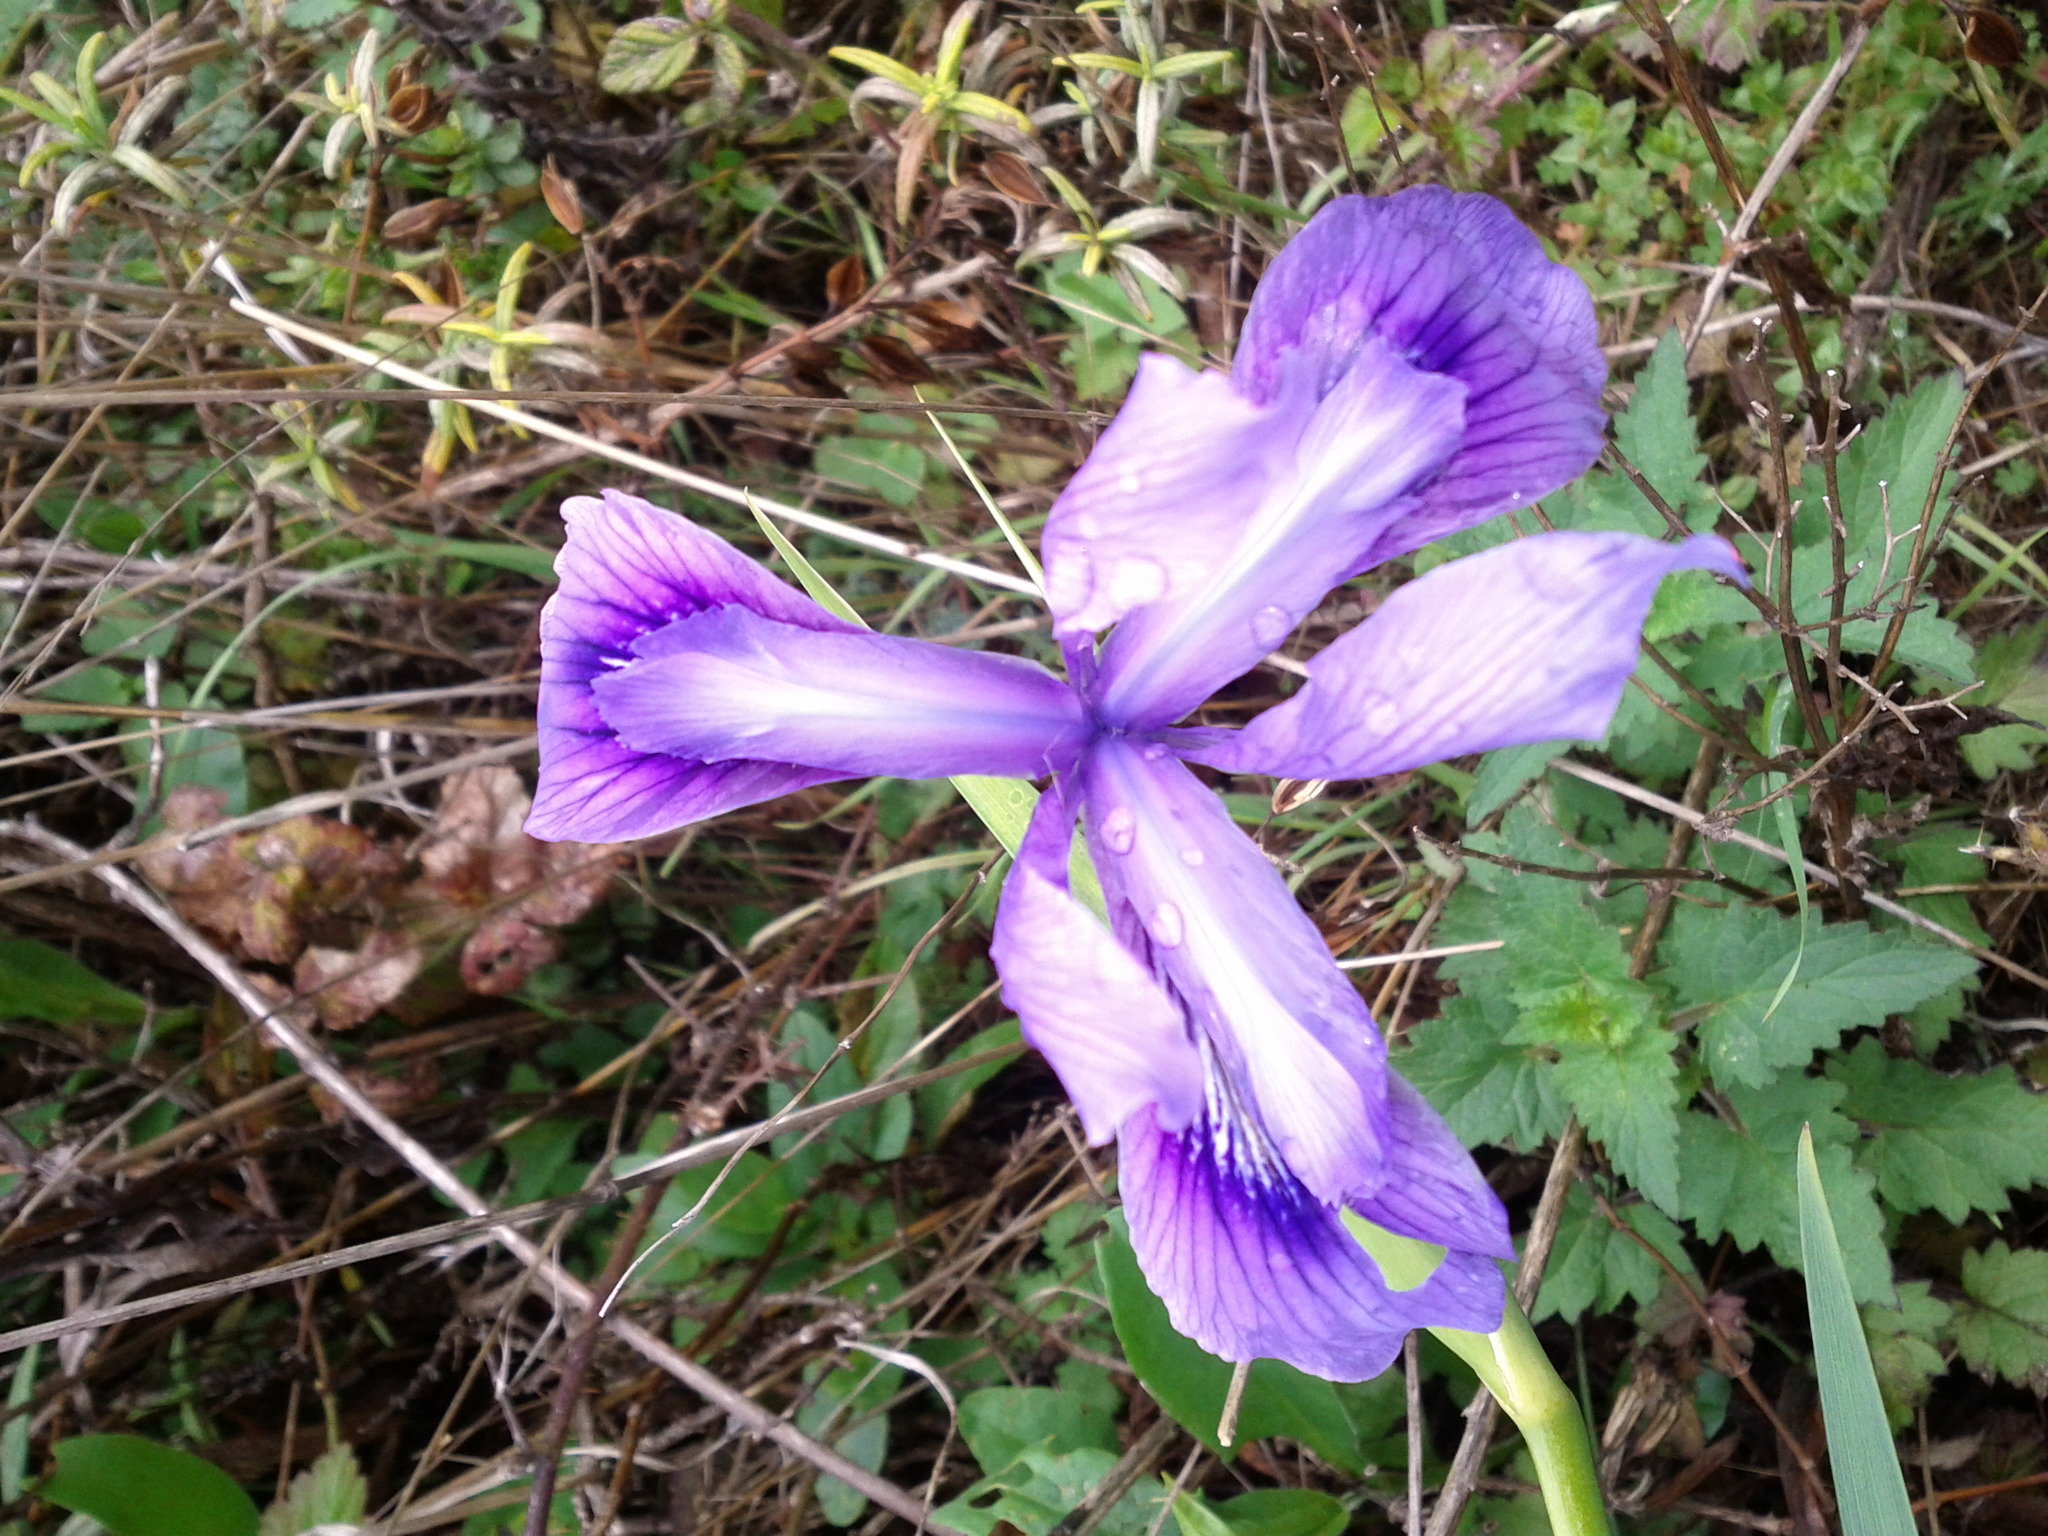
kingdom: Plantae
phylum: Tracheophyta
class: Liliopsida
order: Asparagales
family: Iridaceae
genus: Iris
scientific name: Iris douglasiana
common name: Marin iris
